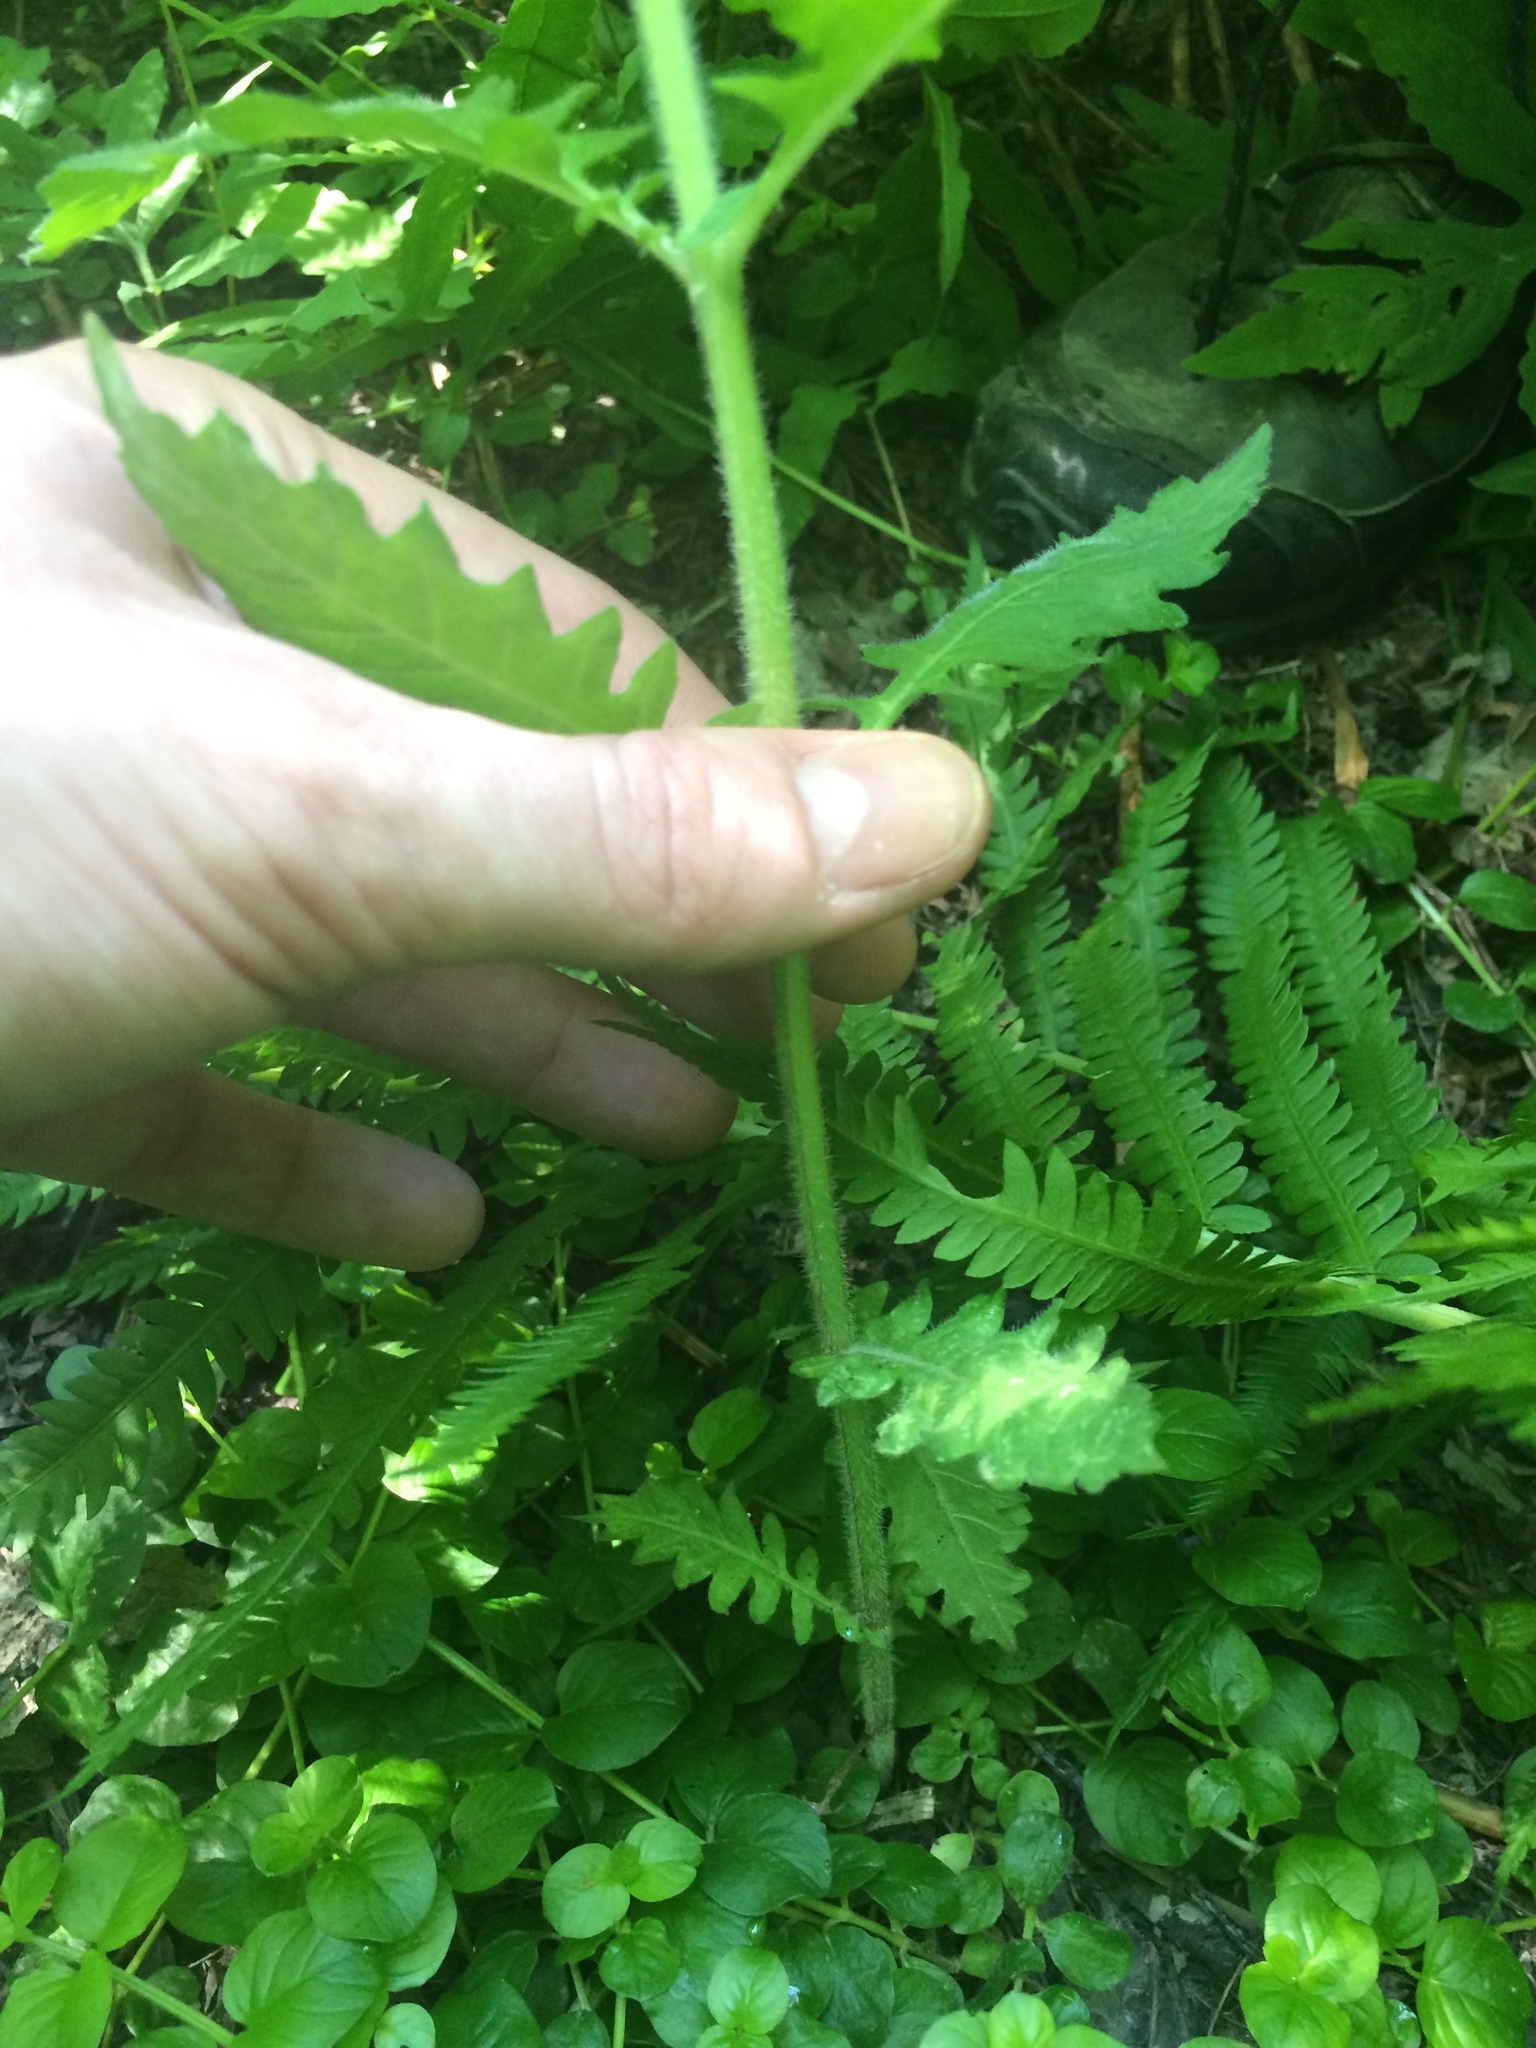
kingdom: Plantae
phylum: Tracheophyta
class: Magnoliopsida
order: Lamiales
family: Lamiaceae
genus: Lycopus
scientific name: Lycopus europaeus
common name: European bugleweed
